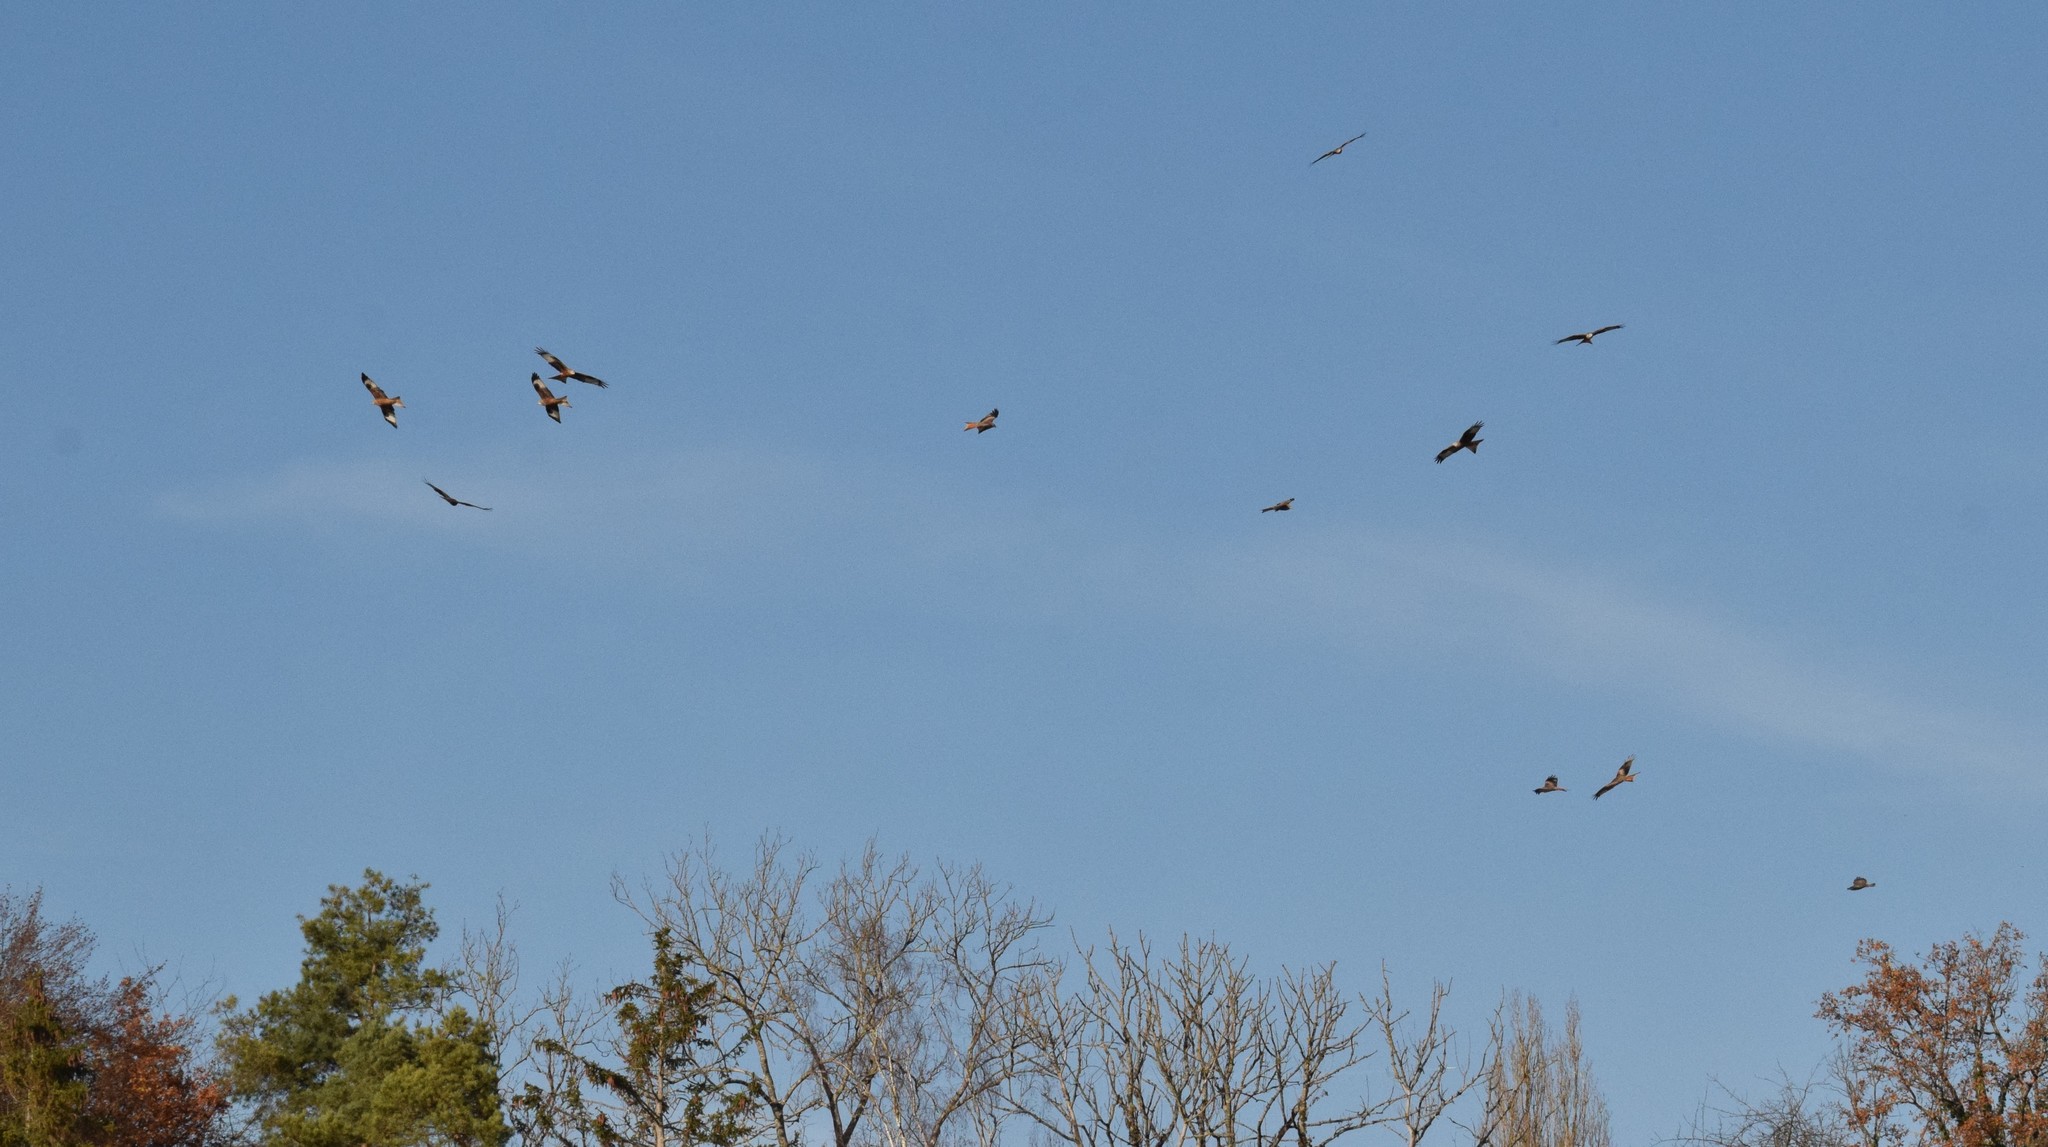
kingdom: Animalia
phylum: Chordata
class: Aves
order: Accipitriformes
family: Accipitridae
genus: Milvus
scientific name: Milvus milvus
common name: Red kite
